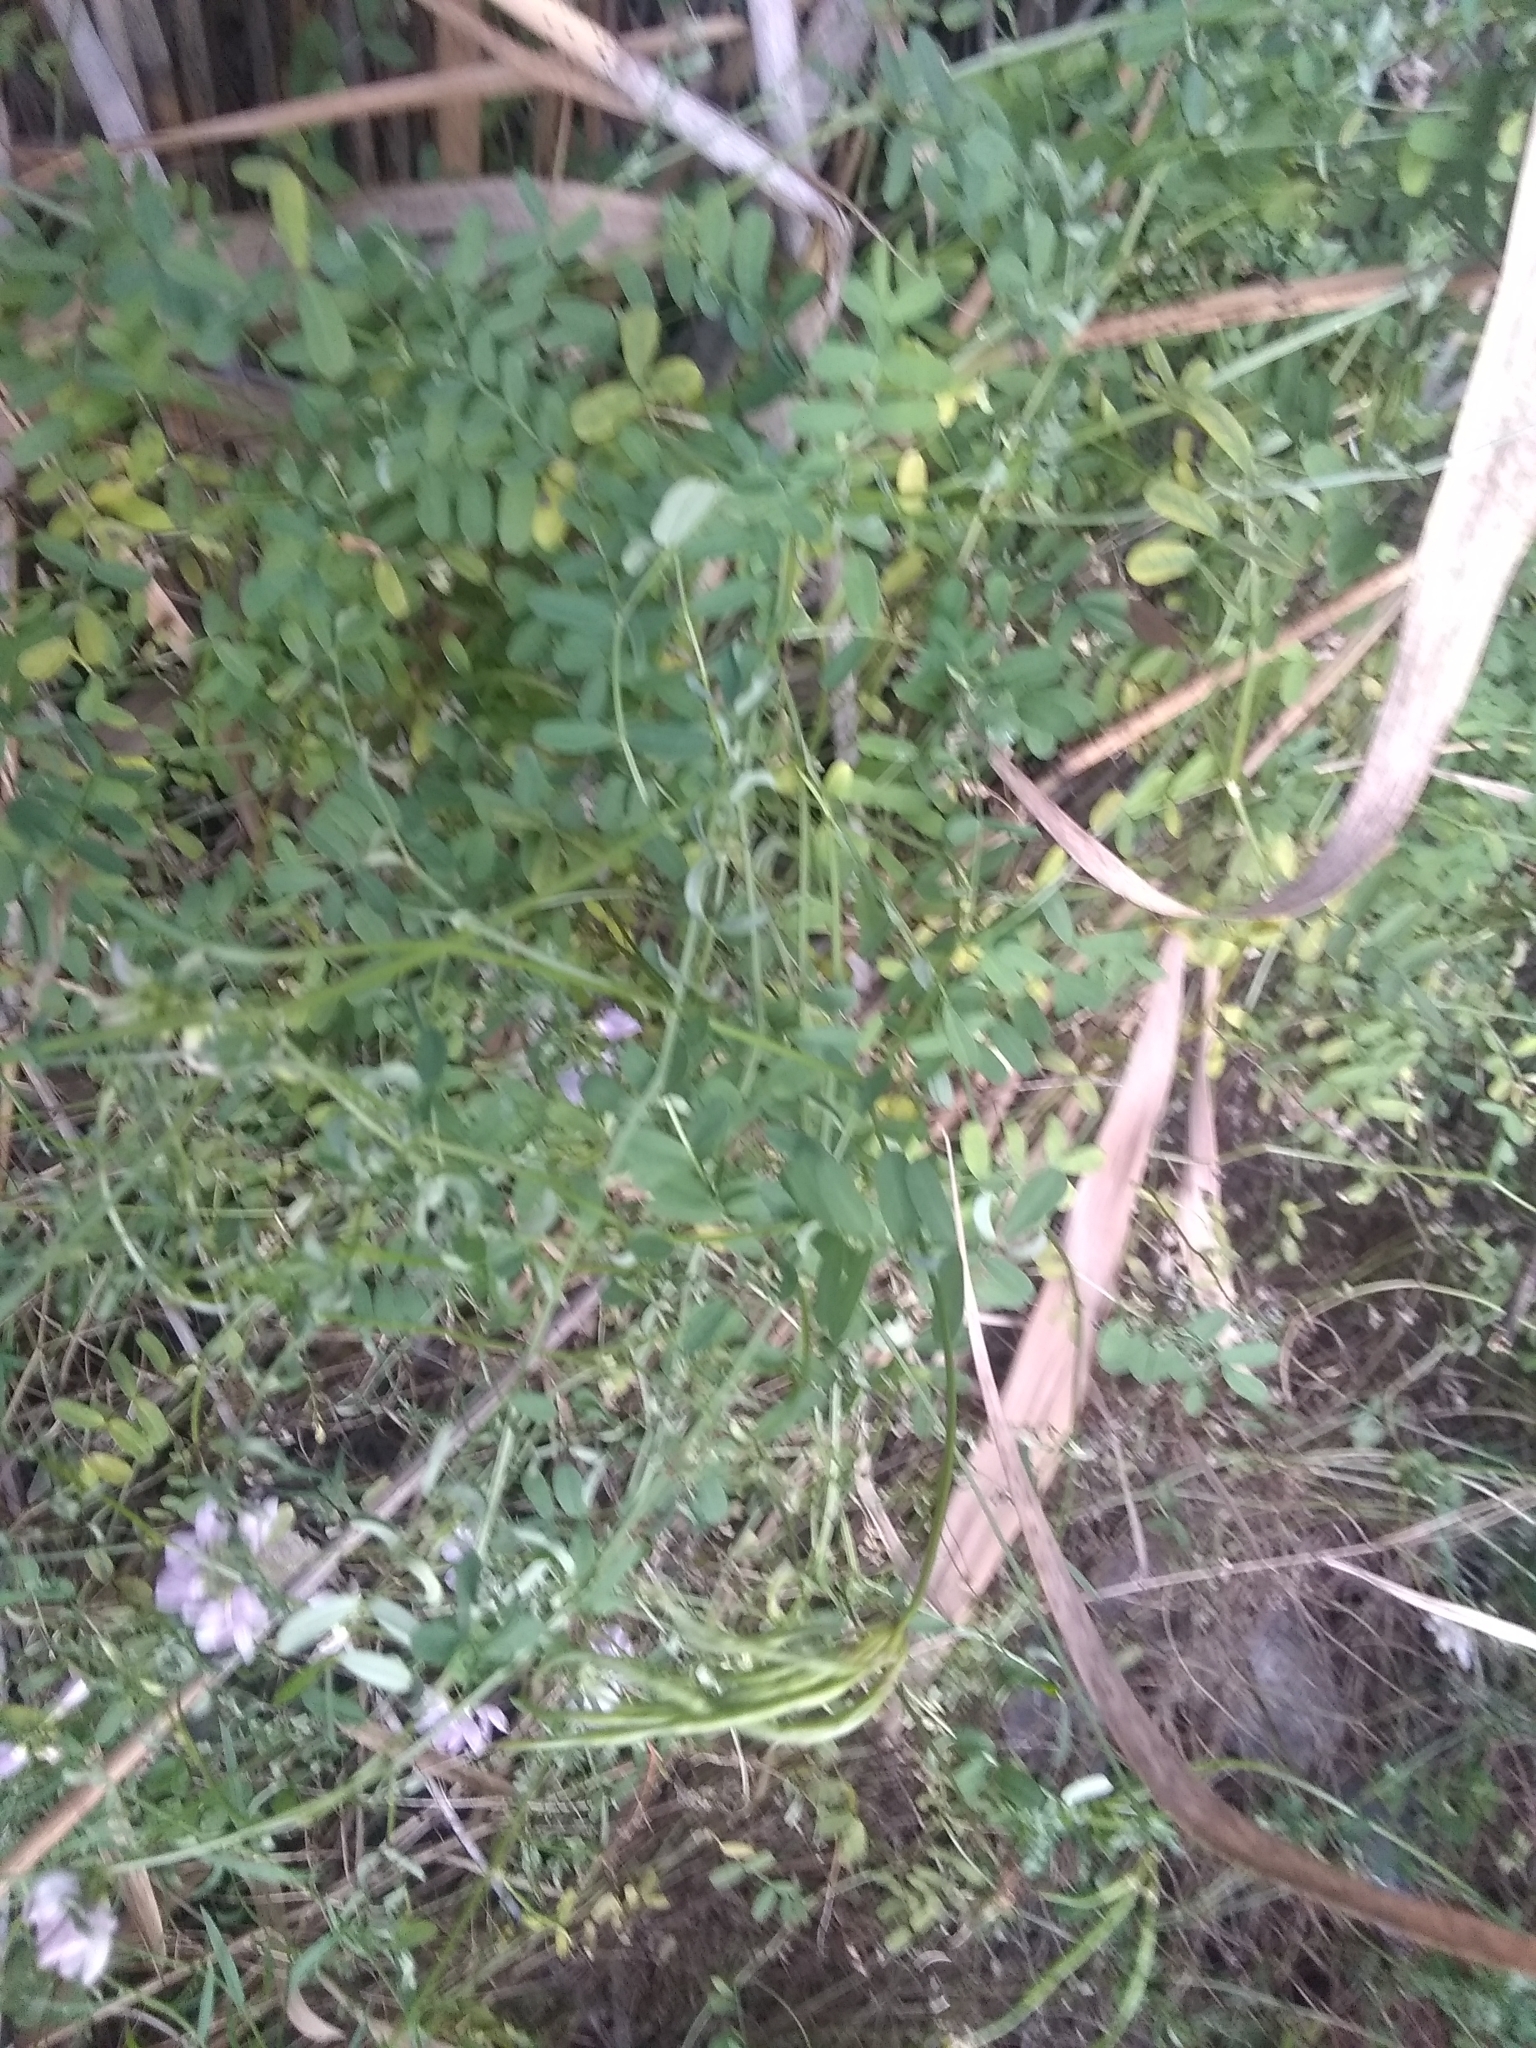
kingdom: Plantae
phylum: Tracheophyta
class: Magnoliopsida
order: Fabales
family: Fabaceae
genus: Coronilla
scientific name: Coronilla varia
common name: Crownvetch
